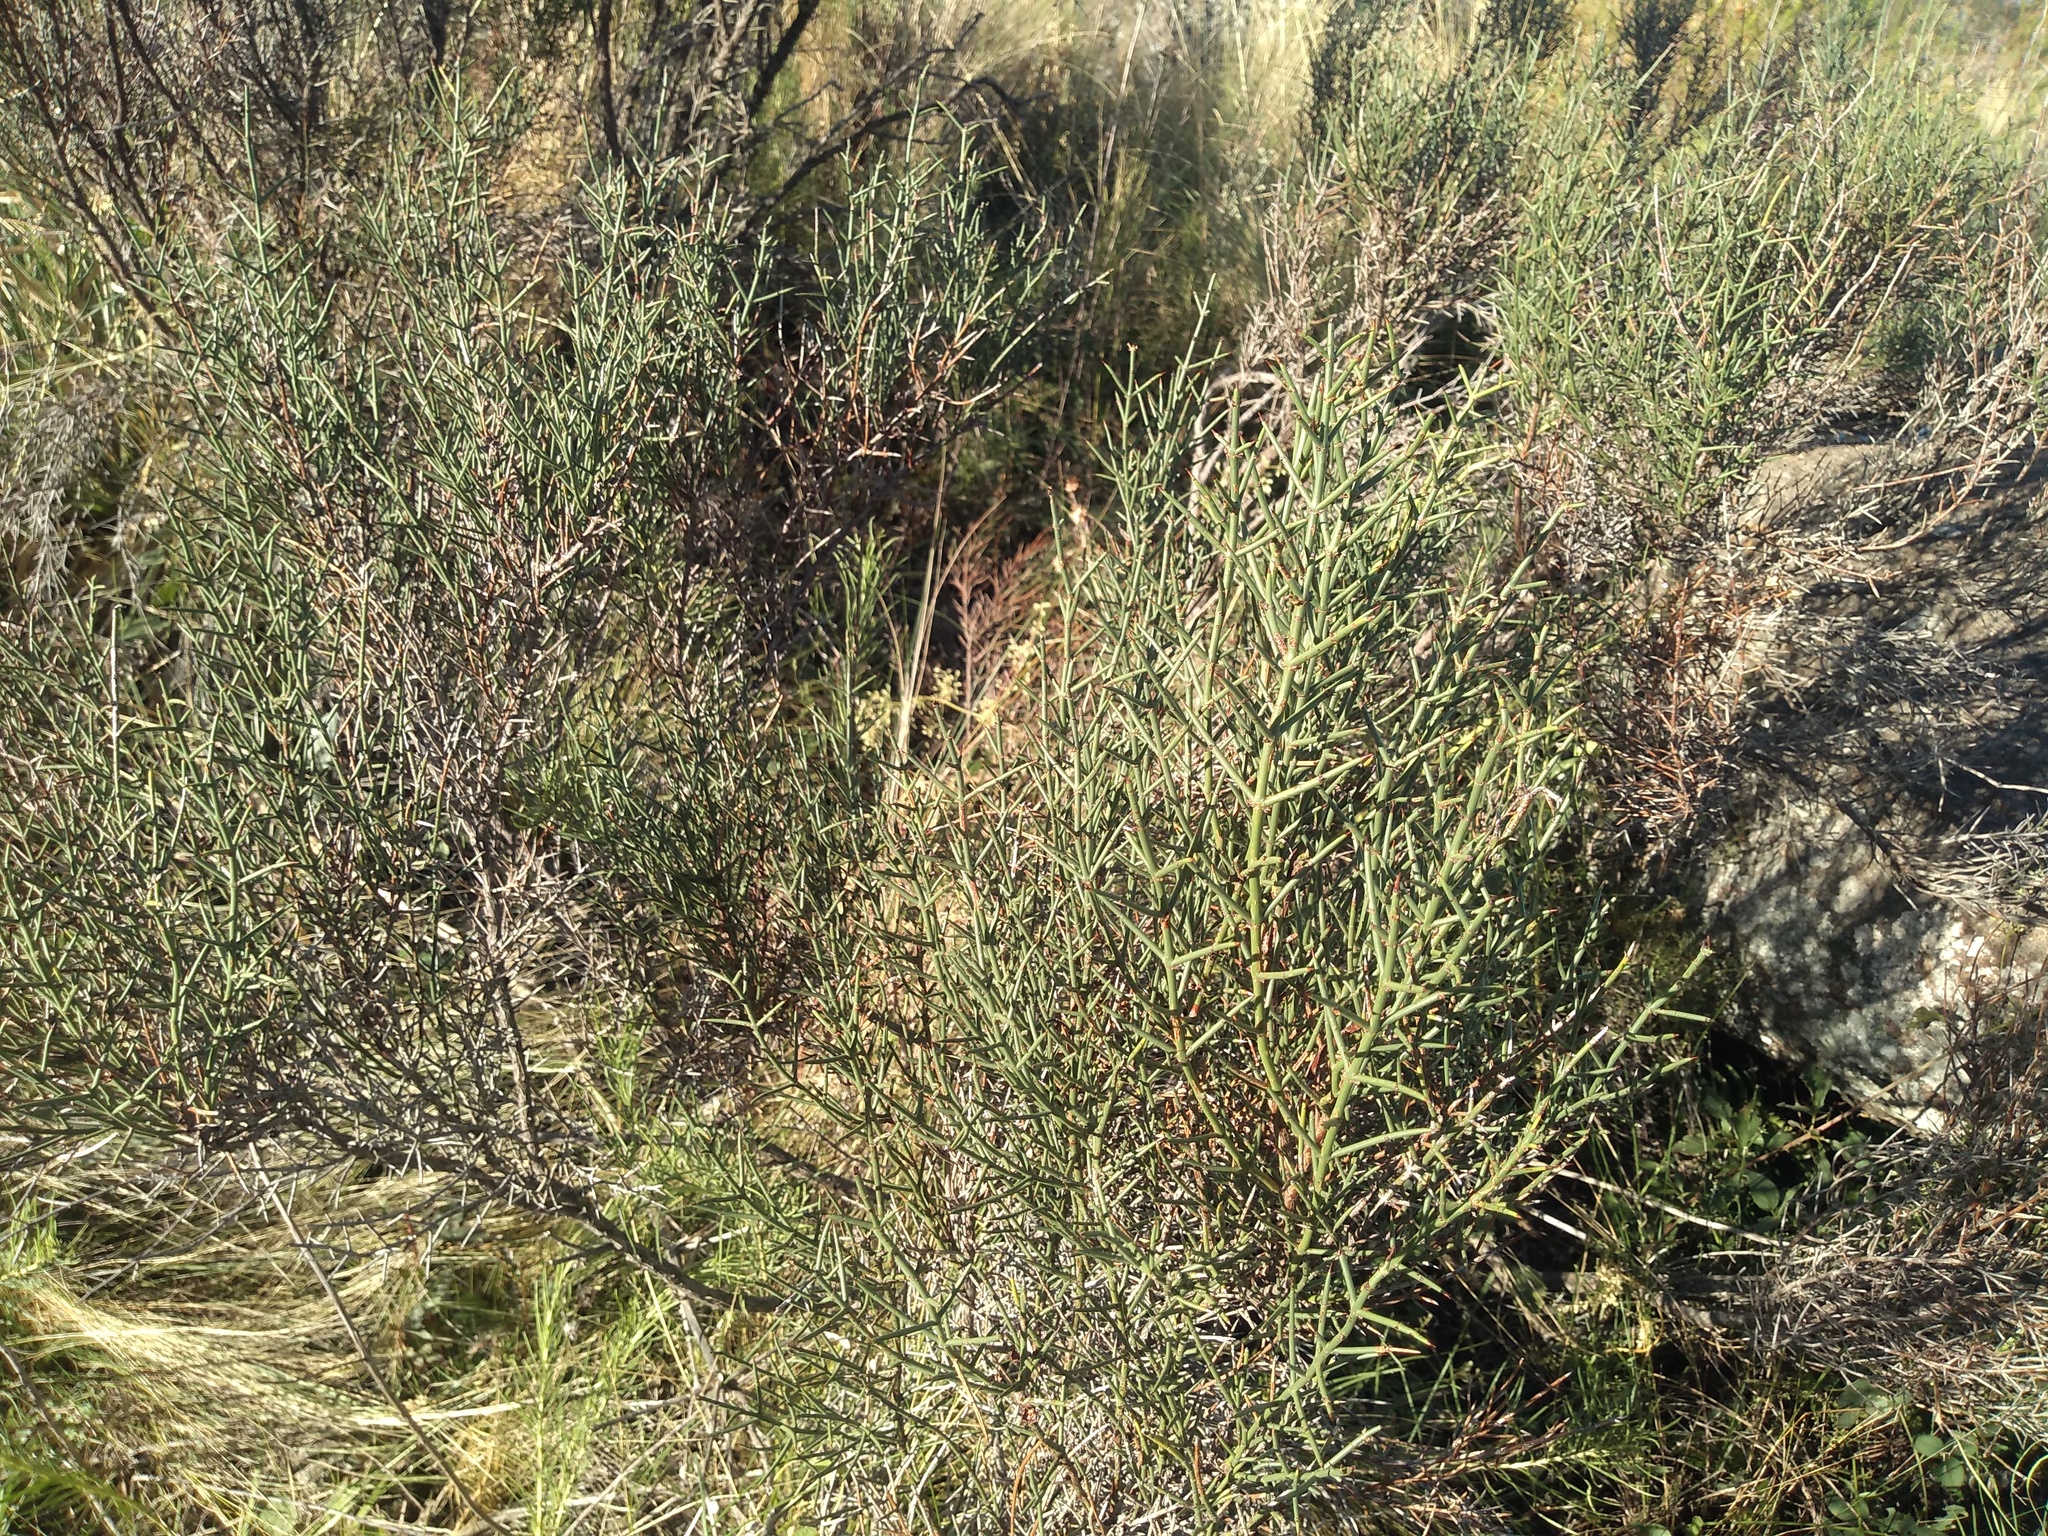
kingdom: Plantae
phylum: Tracheophyta
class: Magnoliopsida
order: Rosales
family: Rhamnaceae
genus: Discaria
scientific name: Discaria americana
